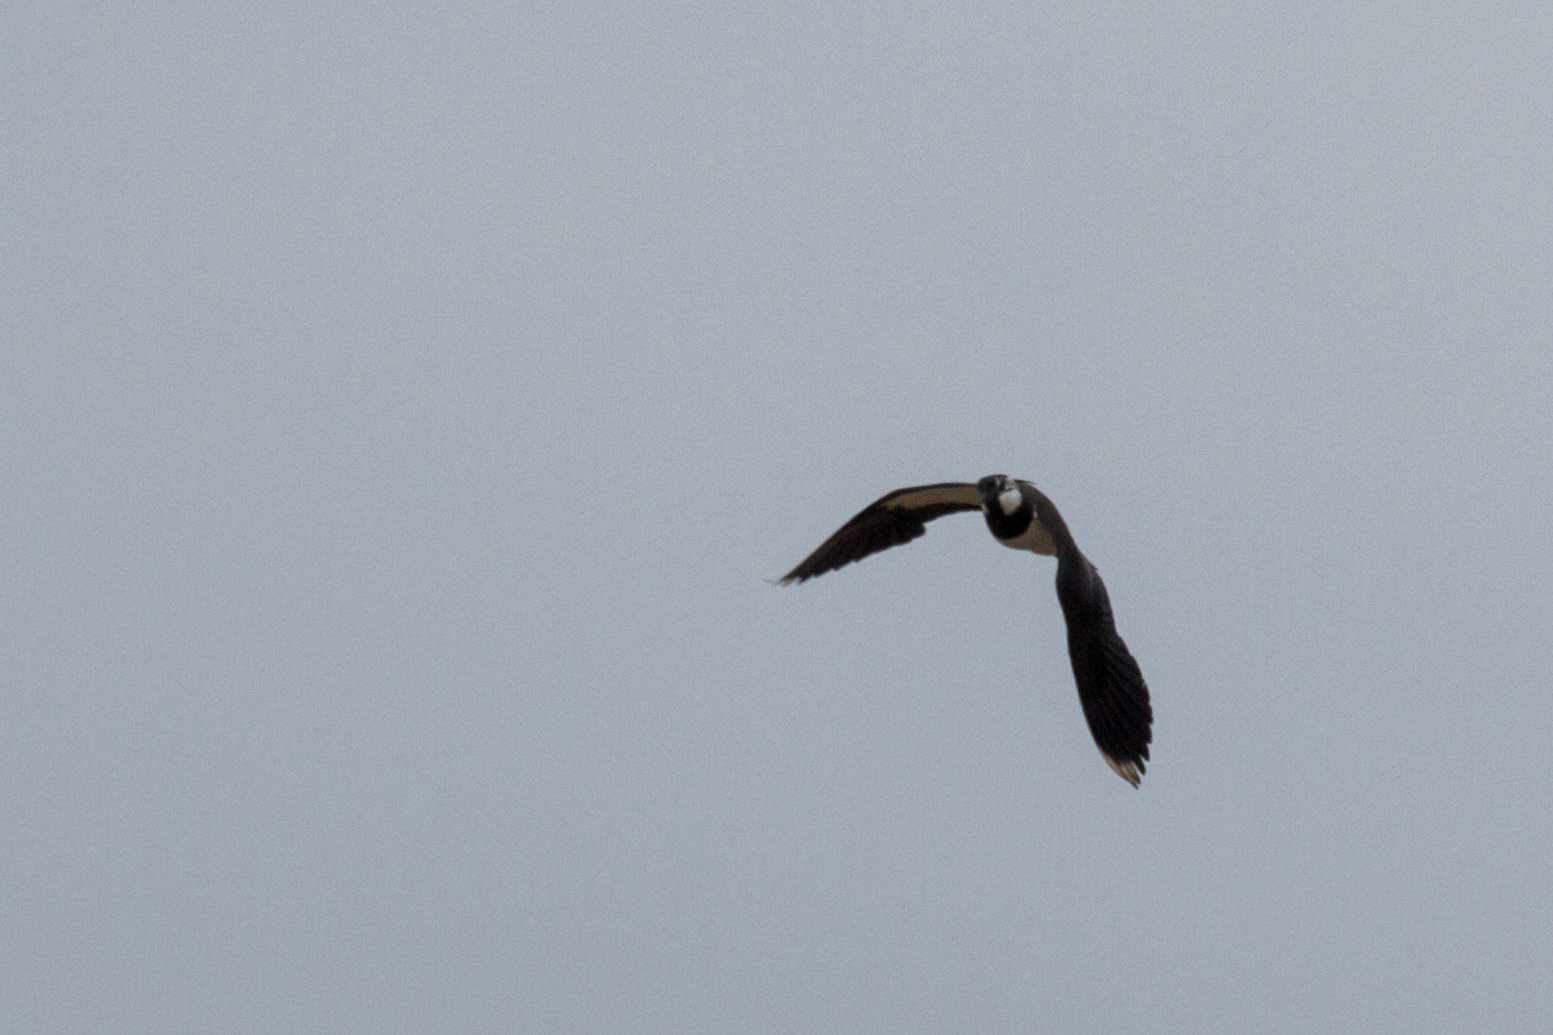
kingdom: Animalia
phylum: Chordata
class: Aves
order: Charadriiformes
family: Charadriidae
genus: Vanellus
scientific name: Vanellus vanellus
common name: Northern lapwing
